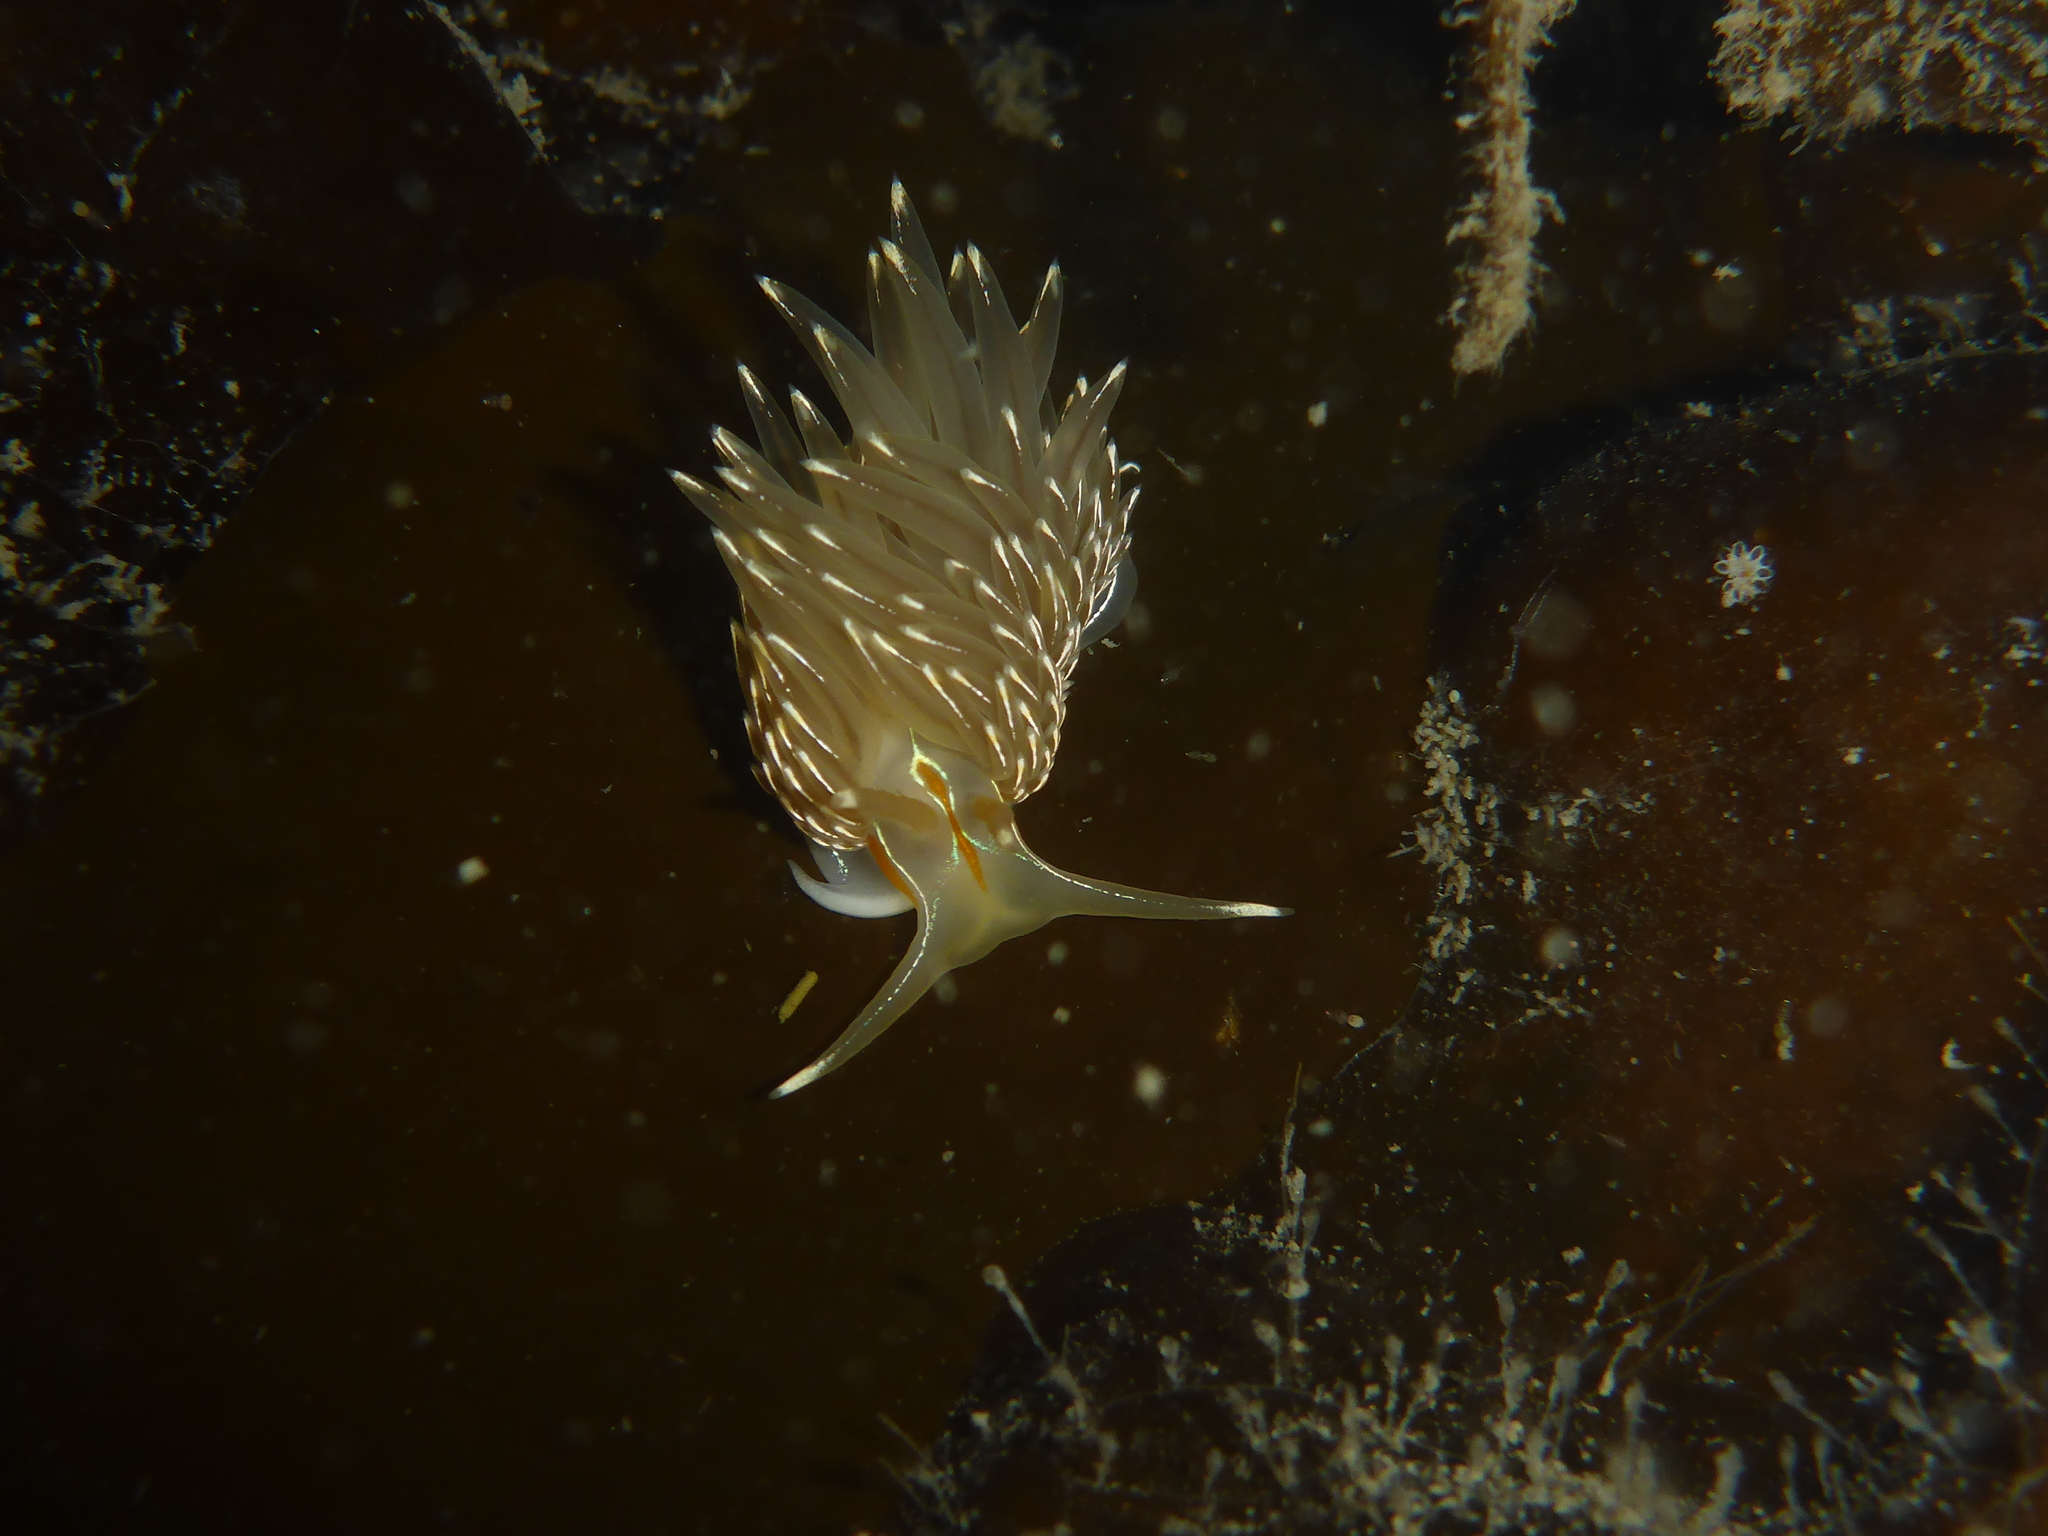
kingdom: Animalia
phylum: Mollusca
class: Gastropoda
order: Nudibranchia
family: Myrrhinidae
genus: Hermissenda
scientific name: Hermissenda crassicornis
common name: Hermissenda
